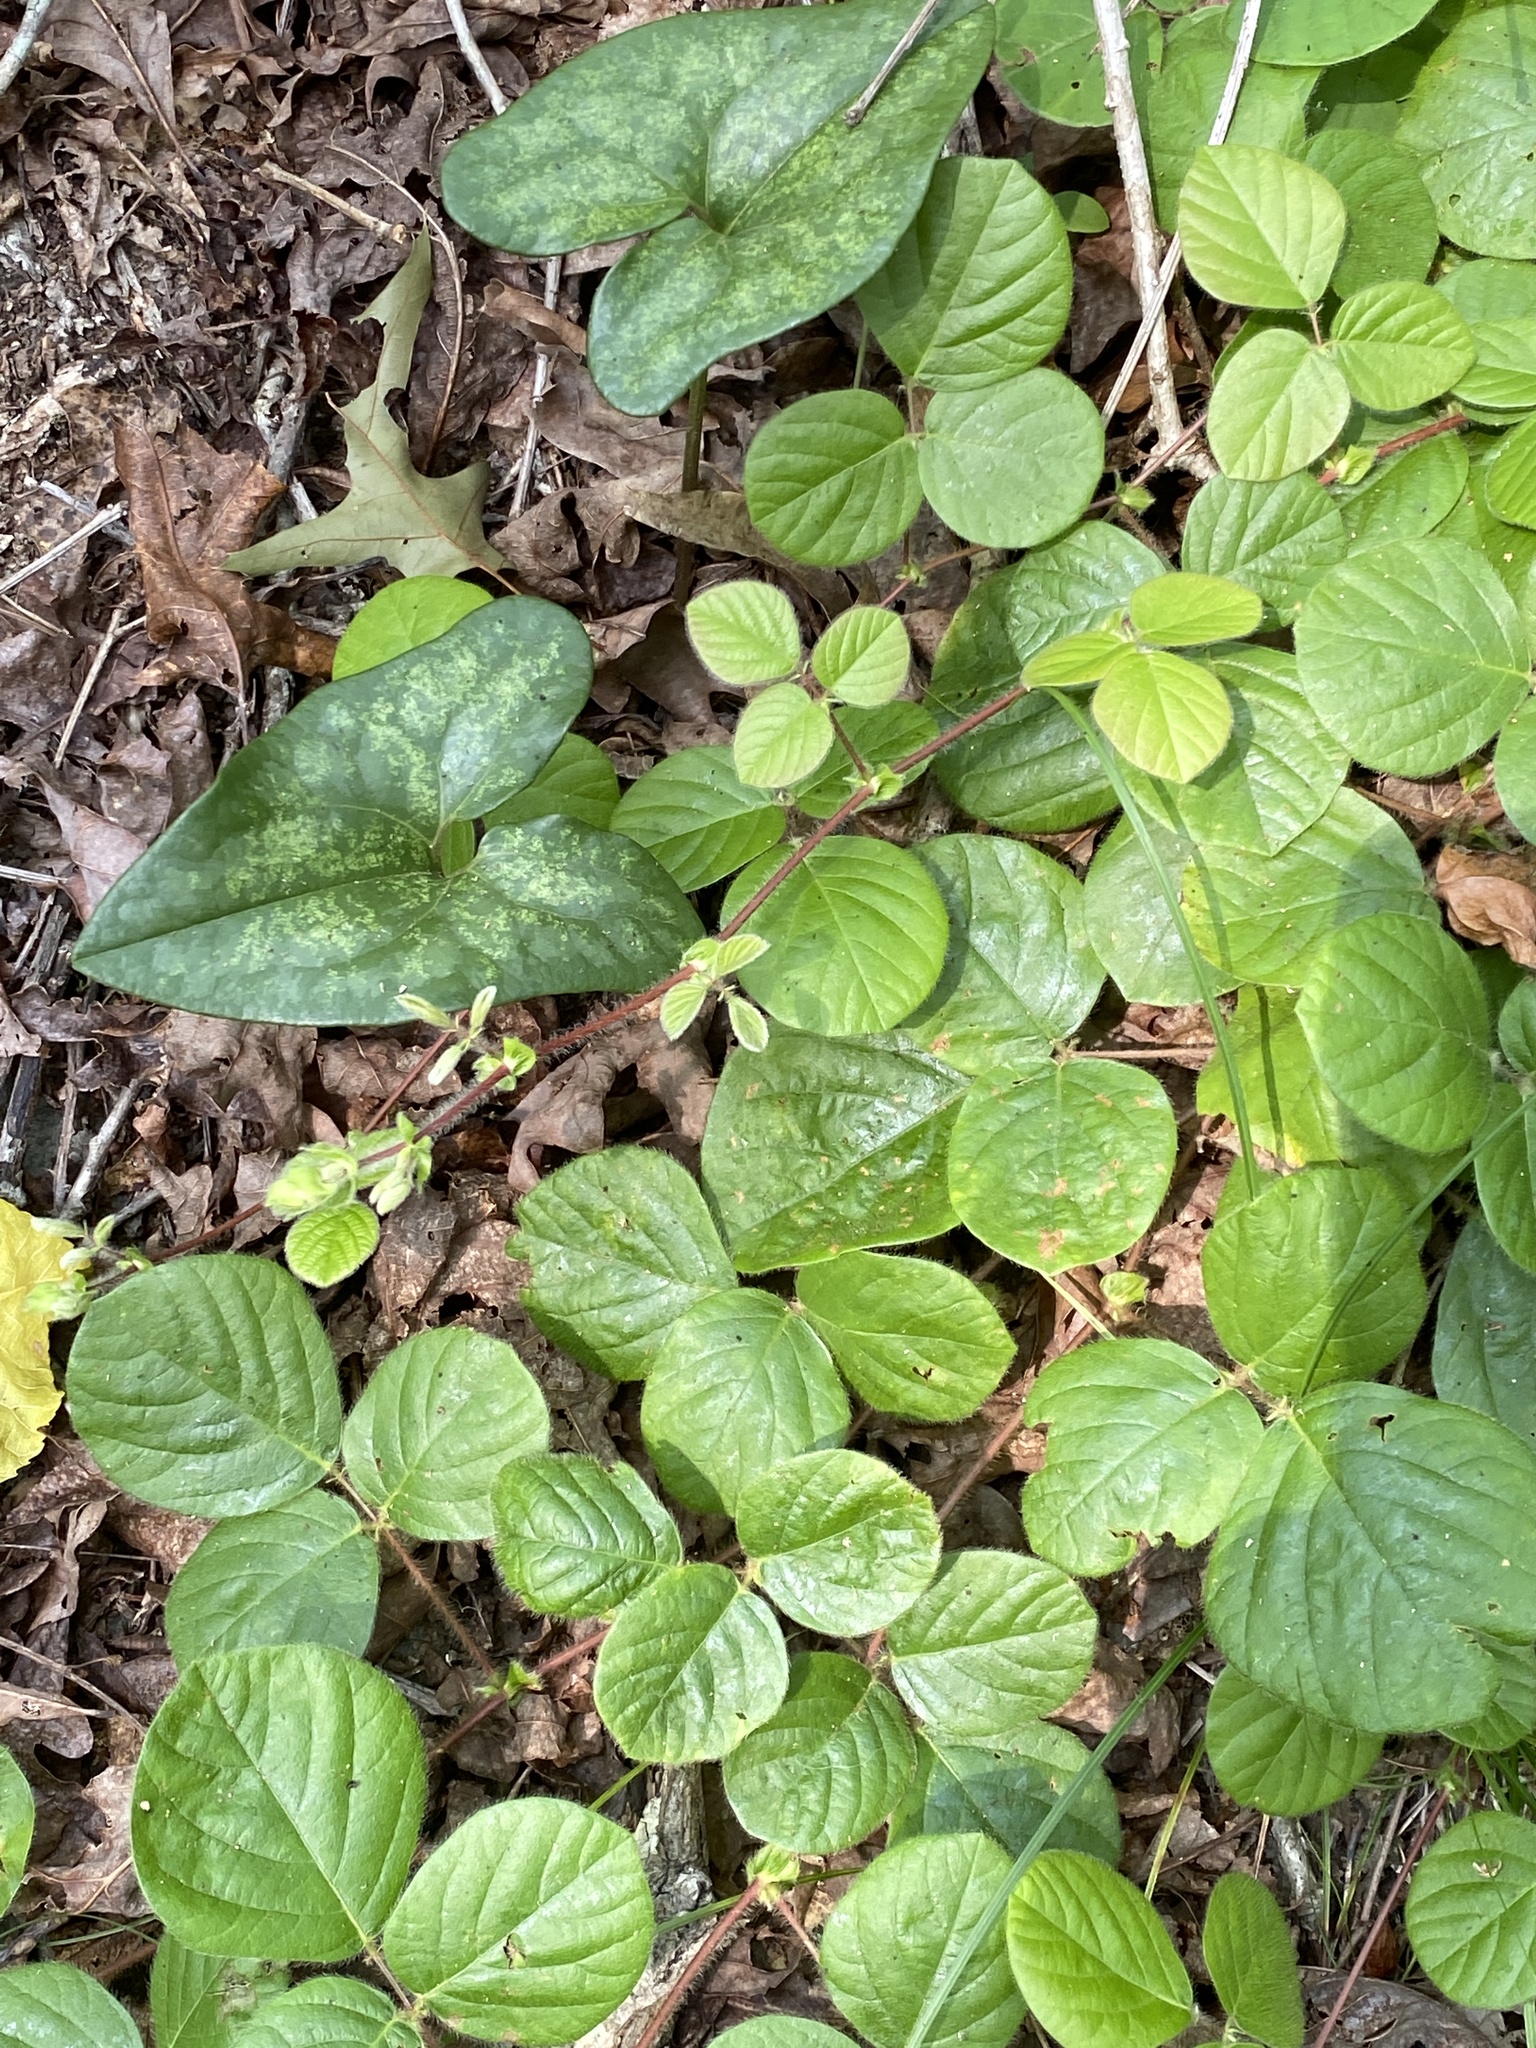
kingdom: Plantae
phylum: Tracheophyta
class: Magnoliopsida
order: Fabales
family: Fabaceae
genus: Desmodium
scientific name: Desmodium rotundifolium
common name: Dollarleaf
